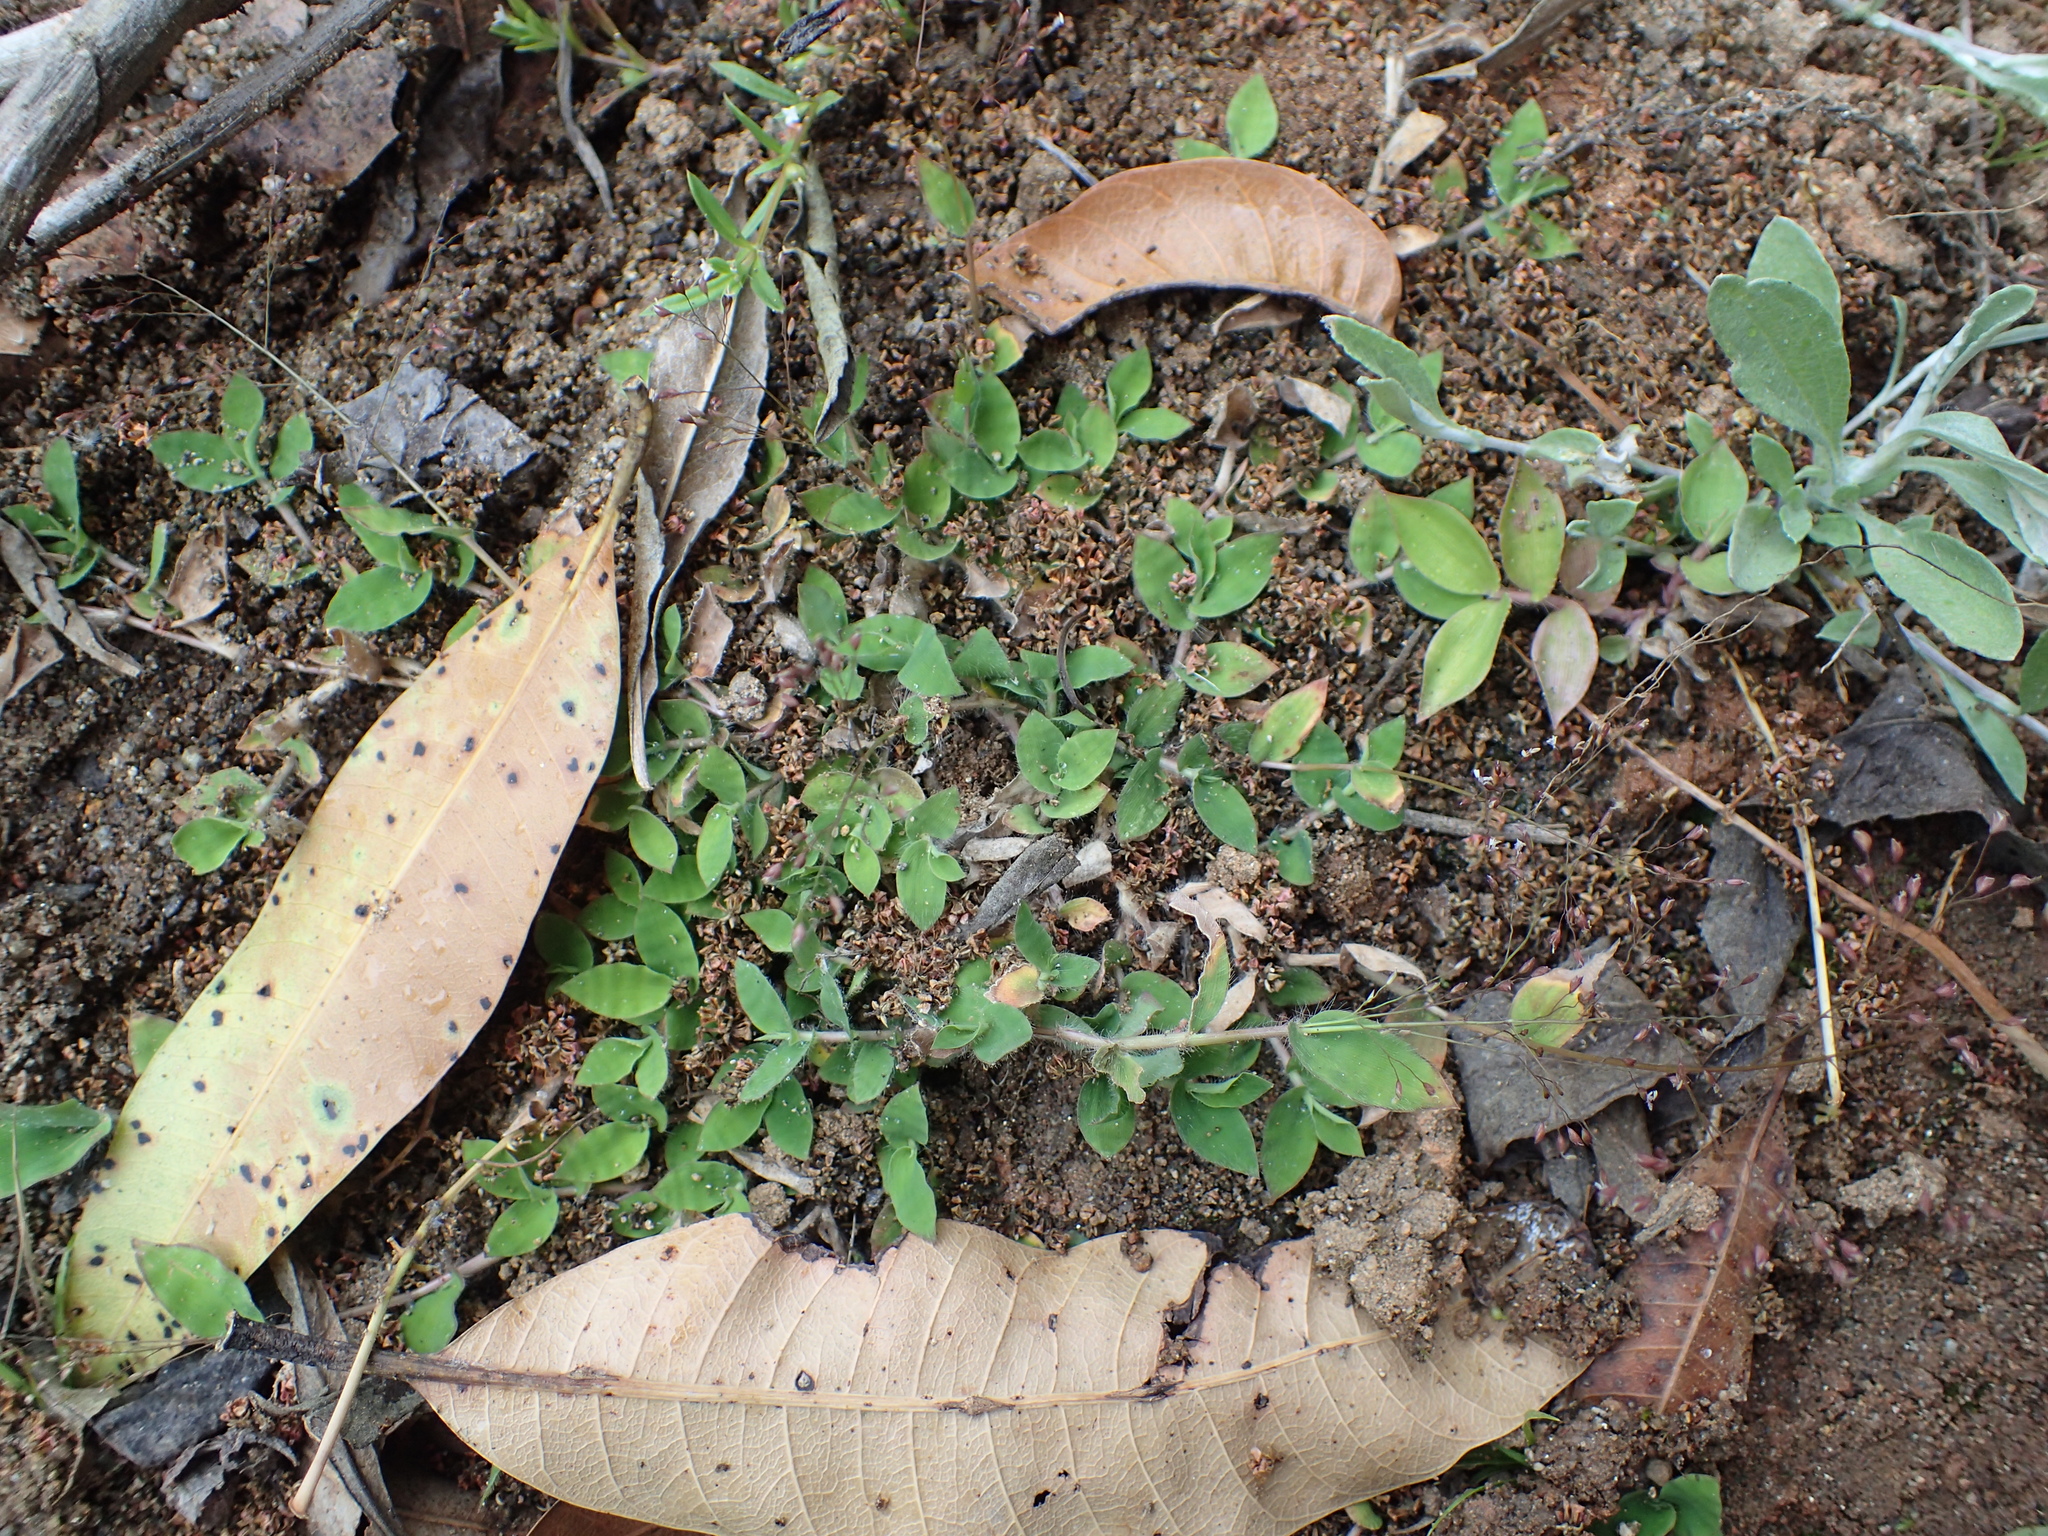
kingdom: Plantae
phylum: Tracheophyta
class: Liliopsida
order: Poales
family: Poaceae
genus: Cyrtococcum
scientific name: Cyrtococcum deltoideum
